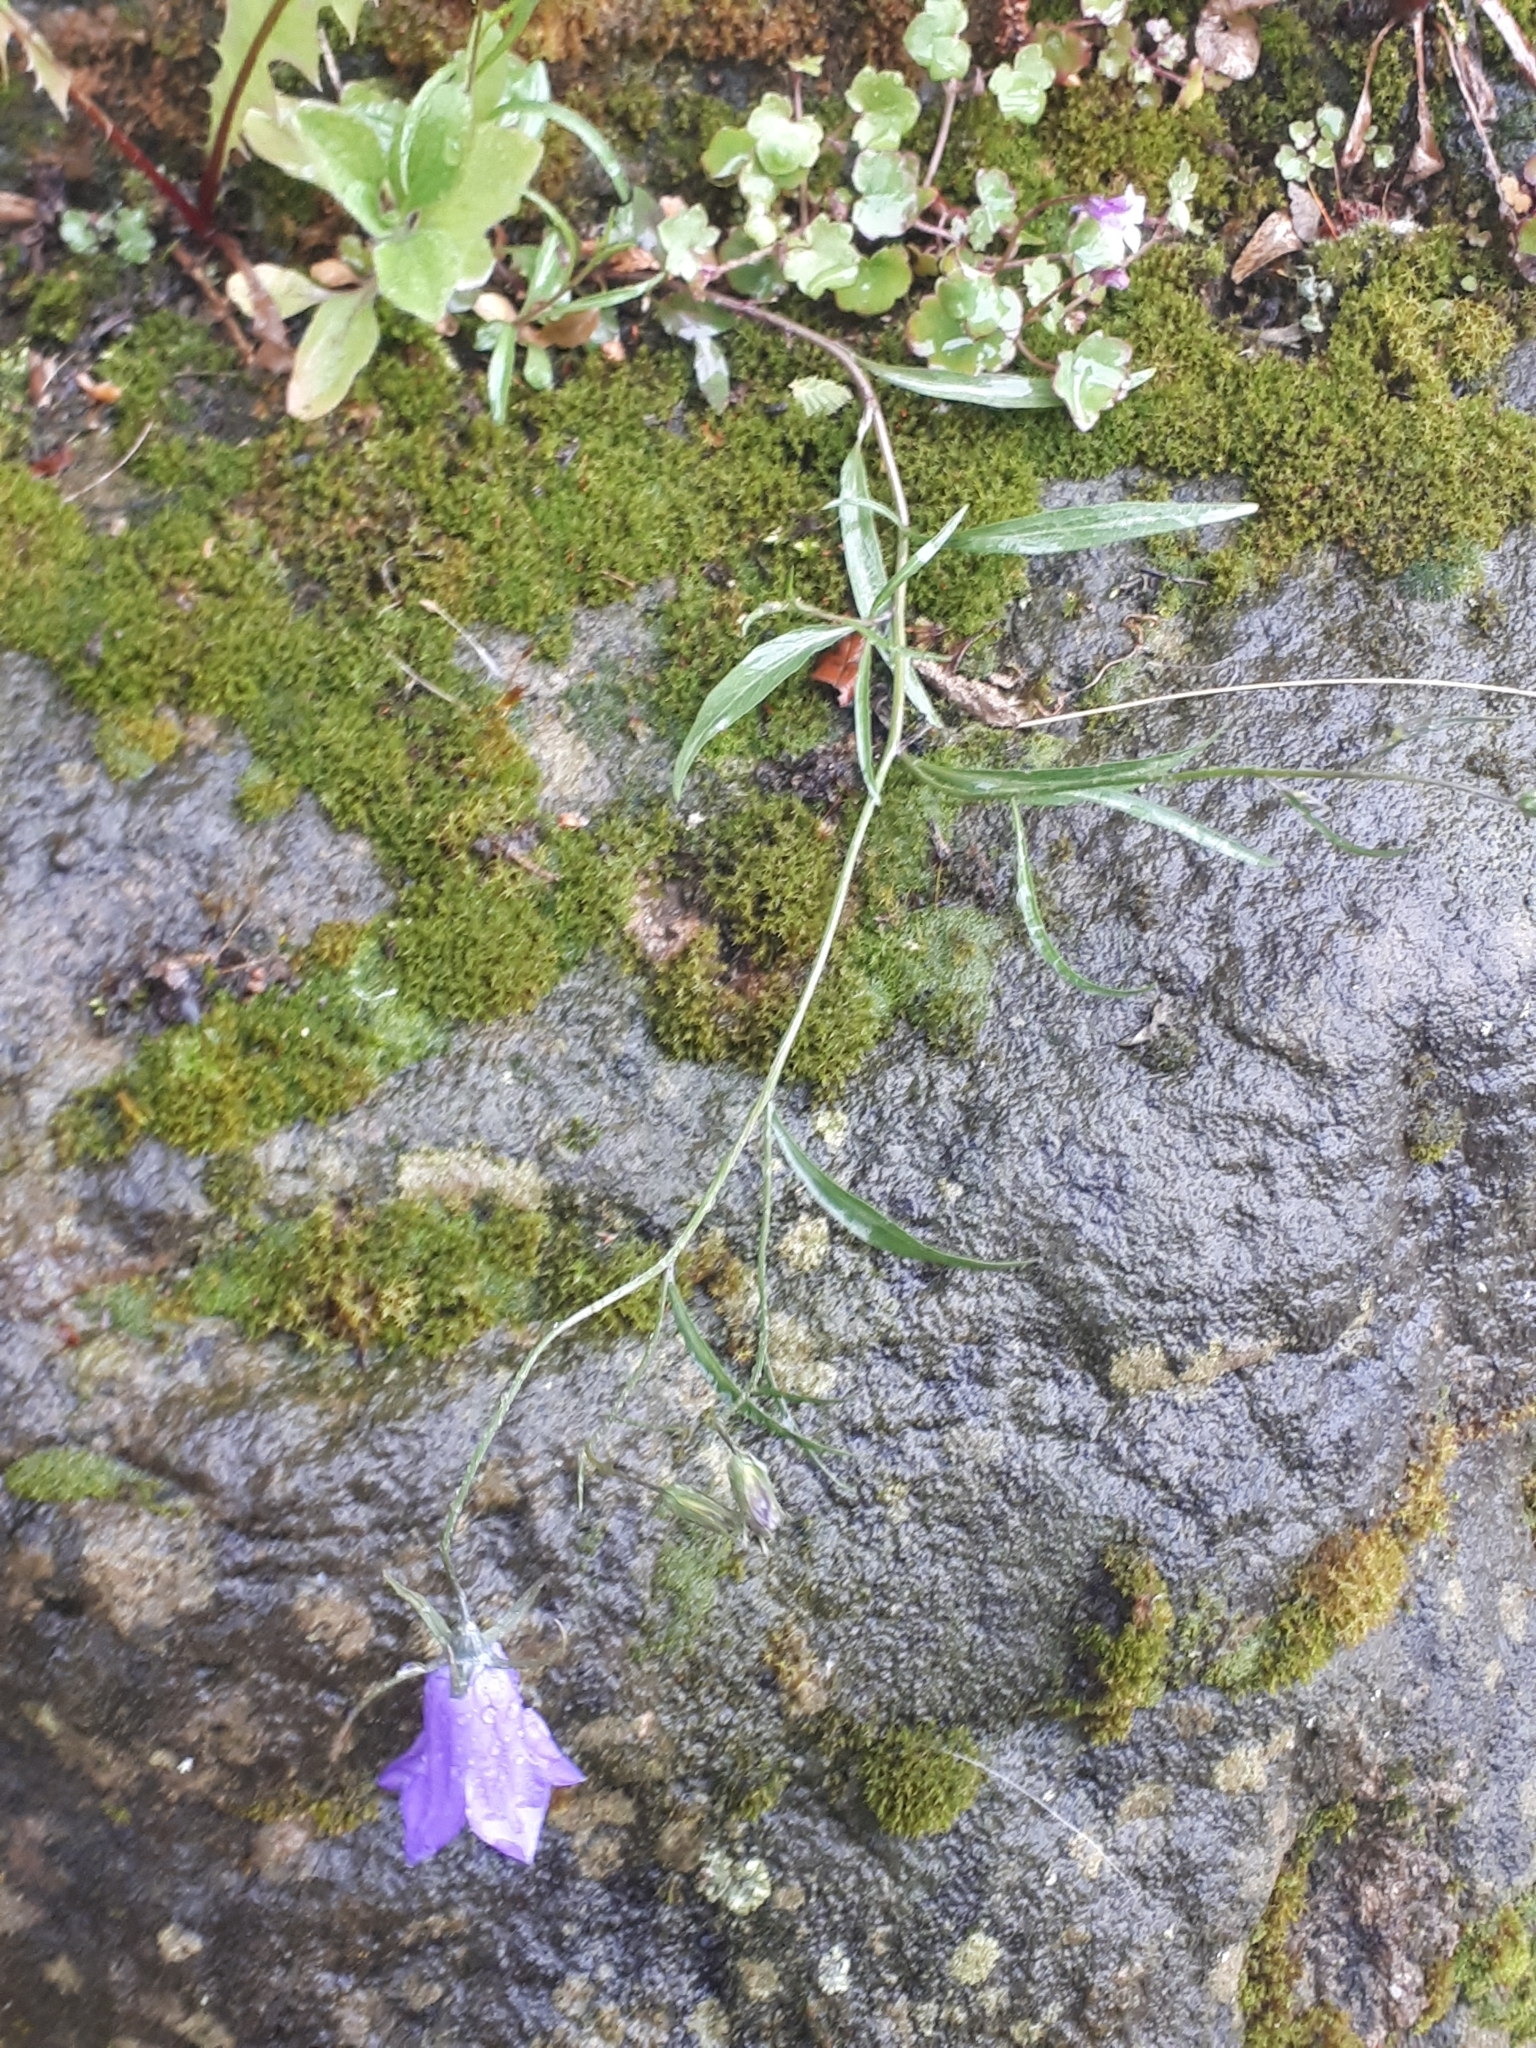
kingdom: Plantae
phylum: Tracheophyta
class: Magnoliopsida
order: Asterales
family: Campanulaceae
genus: Campanula
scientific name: Campanula rotundifolia
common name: Harebell
